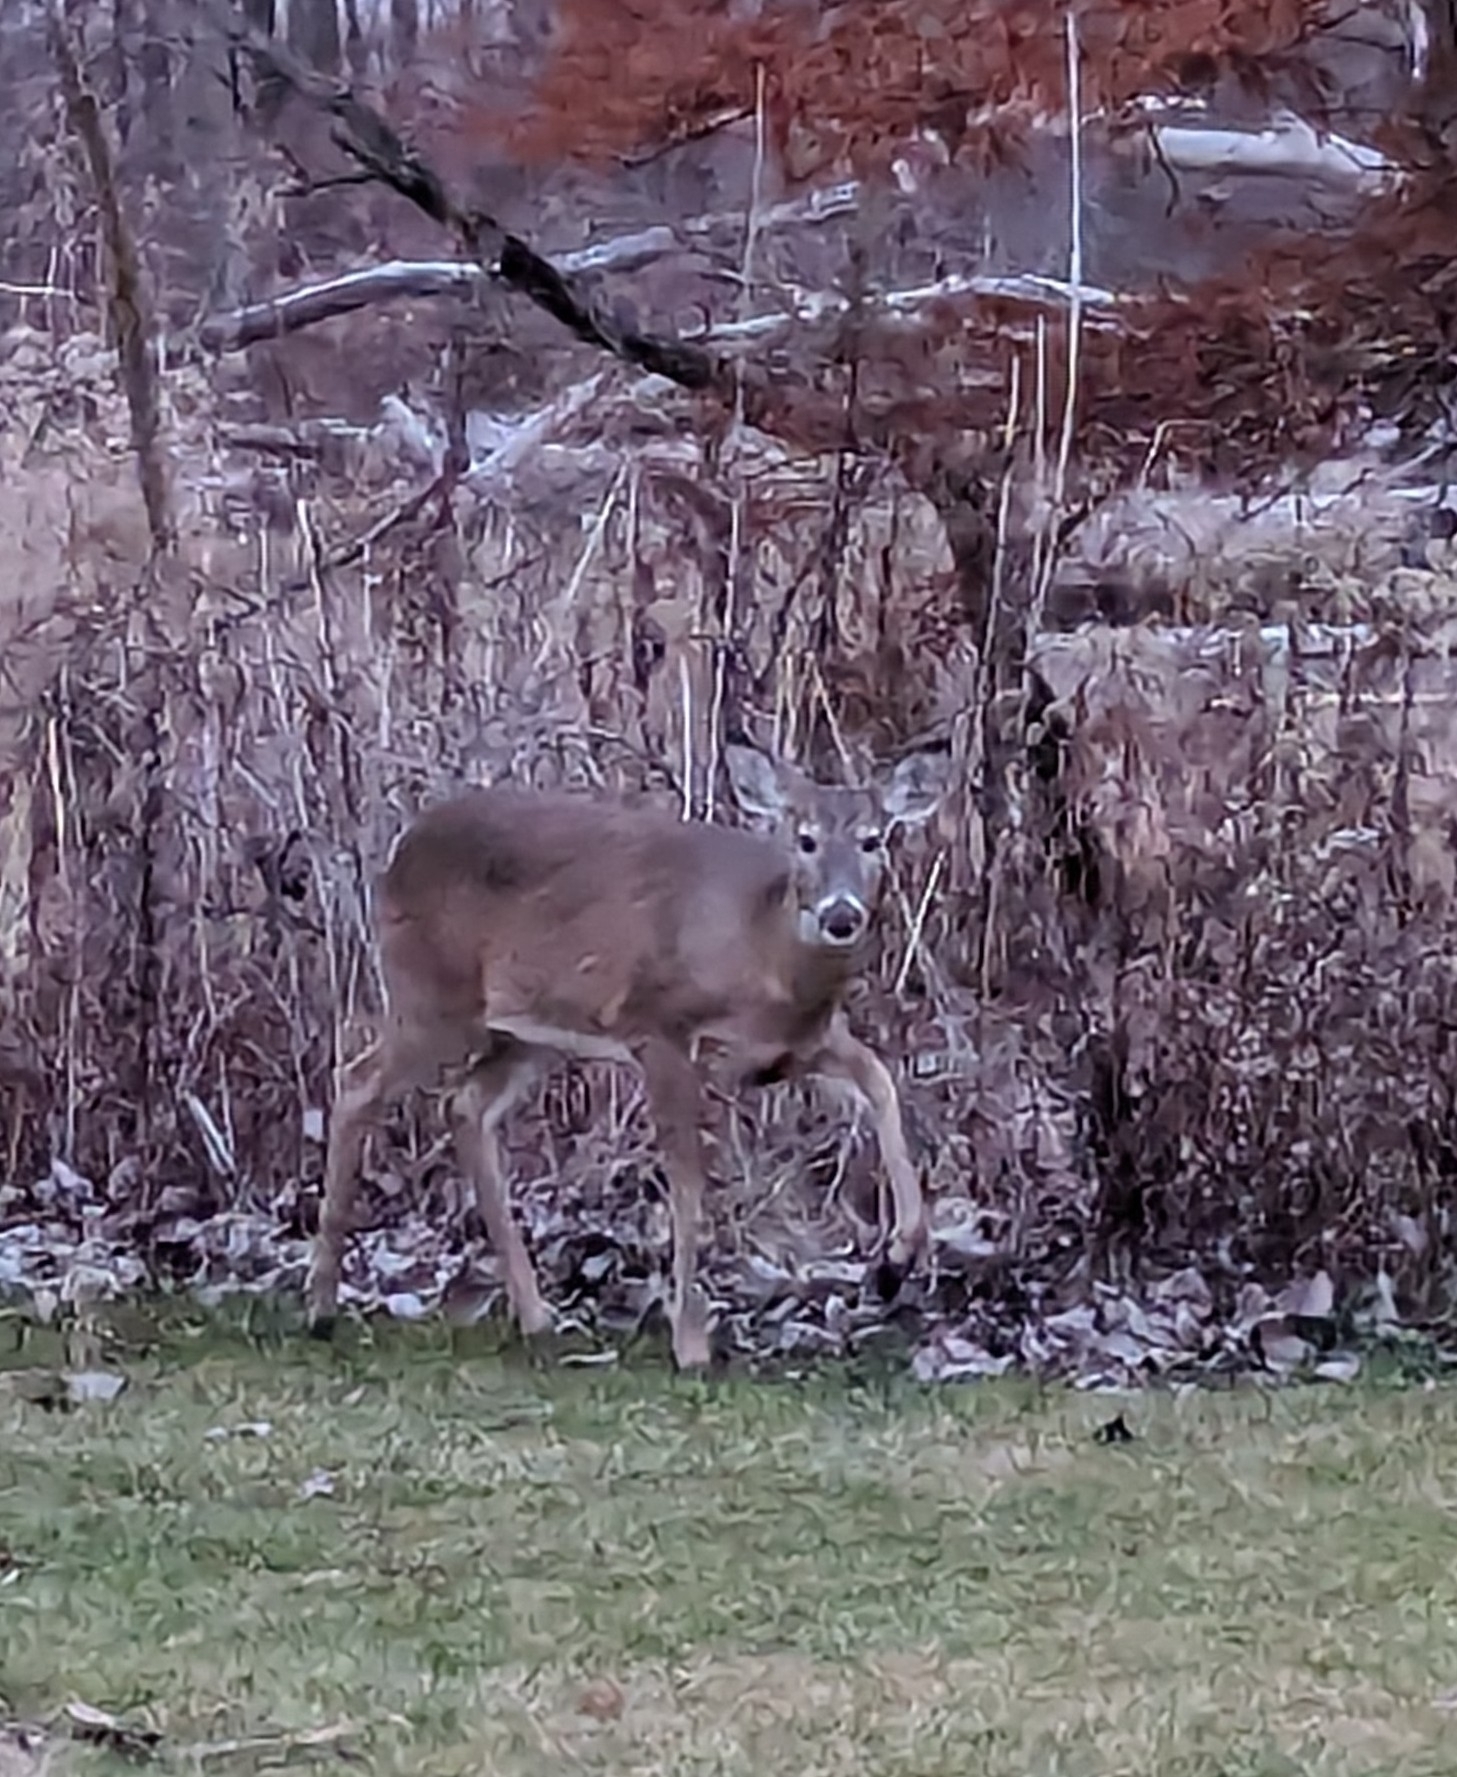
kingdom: Animalia
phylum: Chordata
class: Mammalia
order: Artiodactyla
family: Cervidae
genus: Odocoileus
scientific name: Odocoileus virginianus
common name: White-tailed deer
